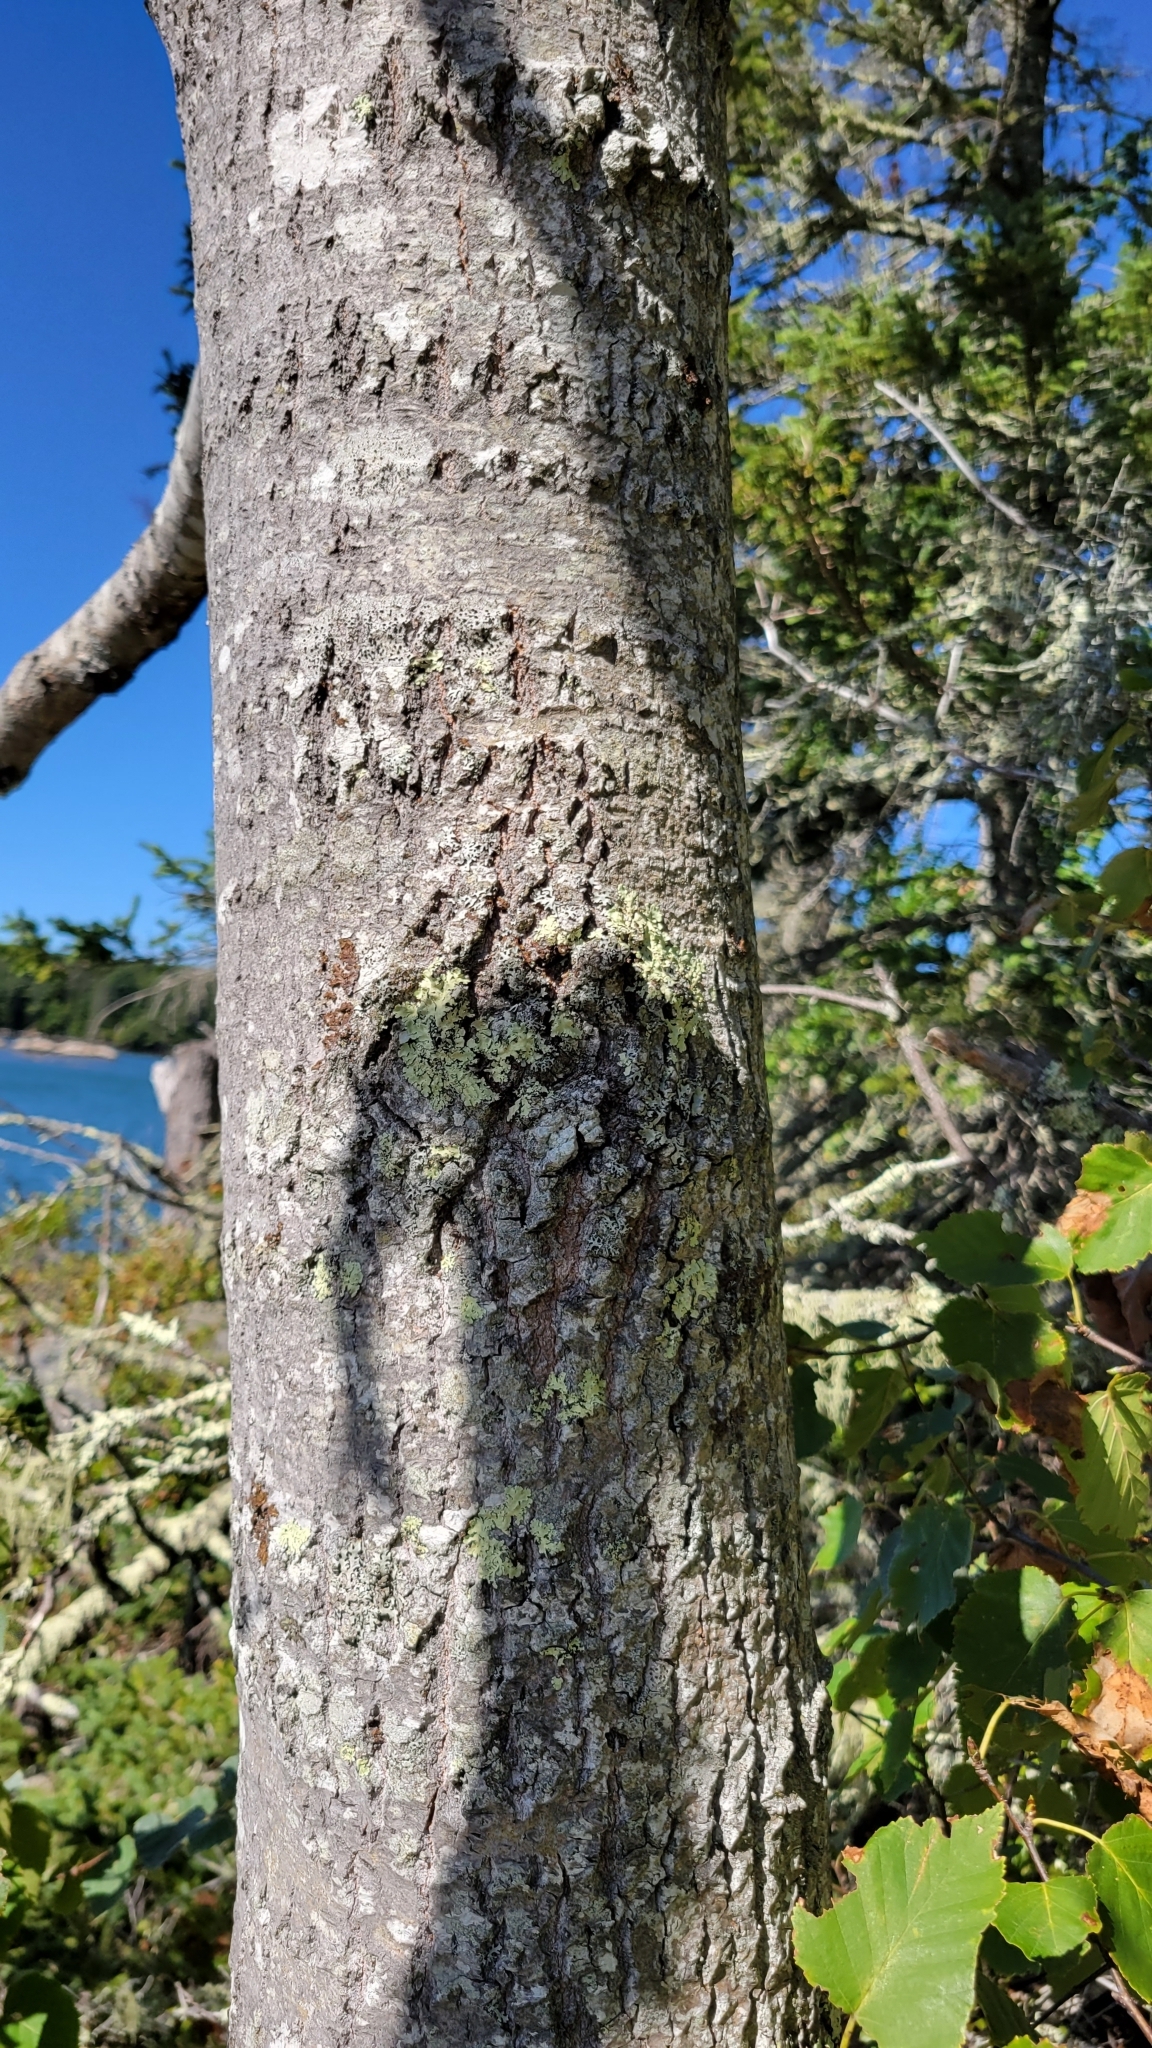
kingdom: Plantae
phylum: Tracheophyta
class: Magnoliopsida
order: Malpighiales
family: Salicaceae
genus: Populus
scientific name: Populus grandidentata
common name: Bigtooth aspen
